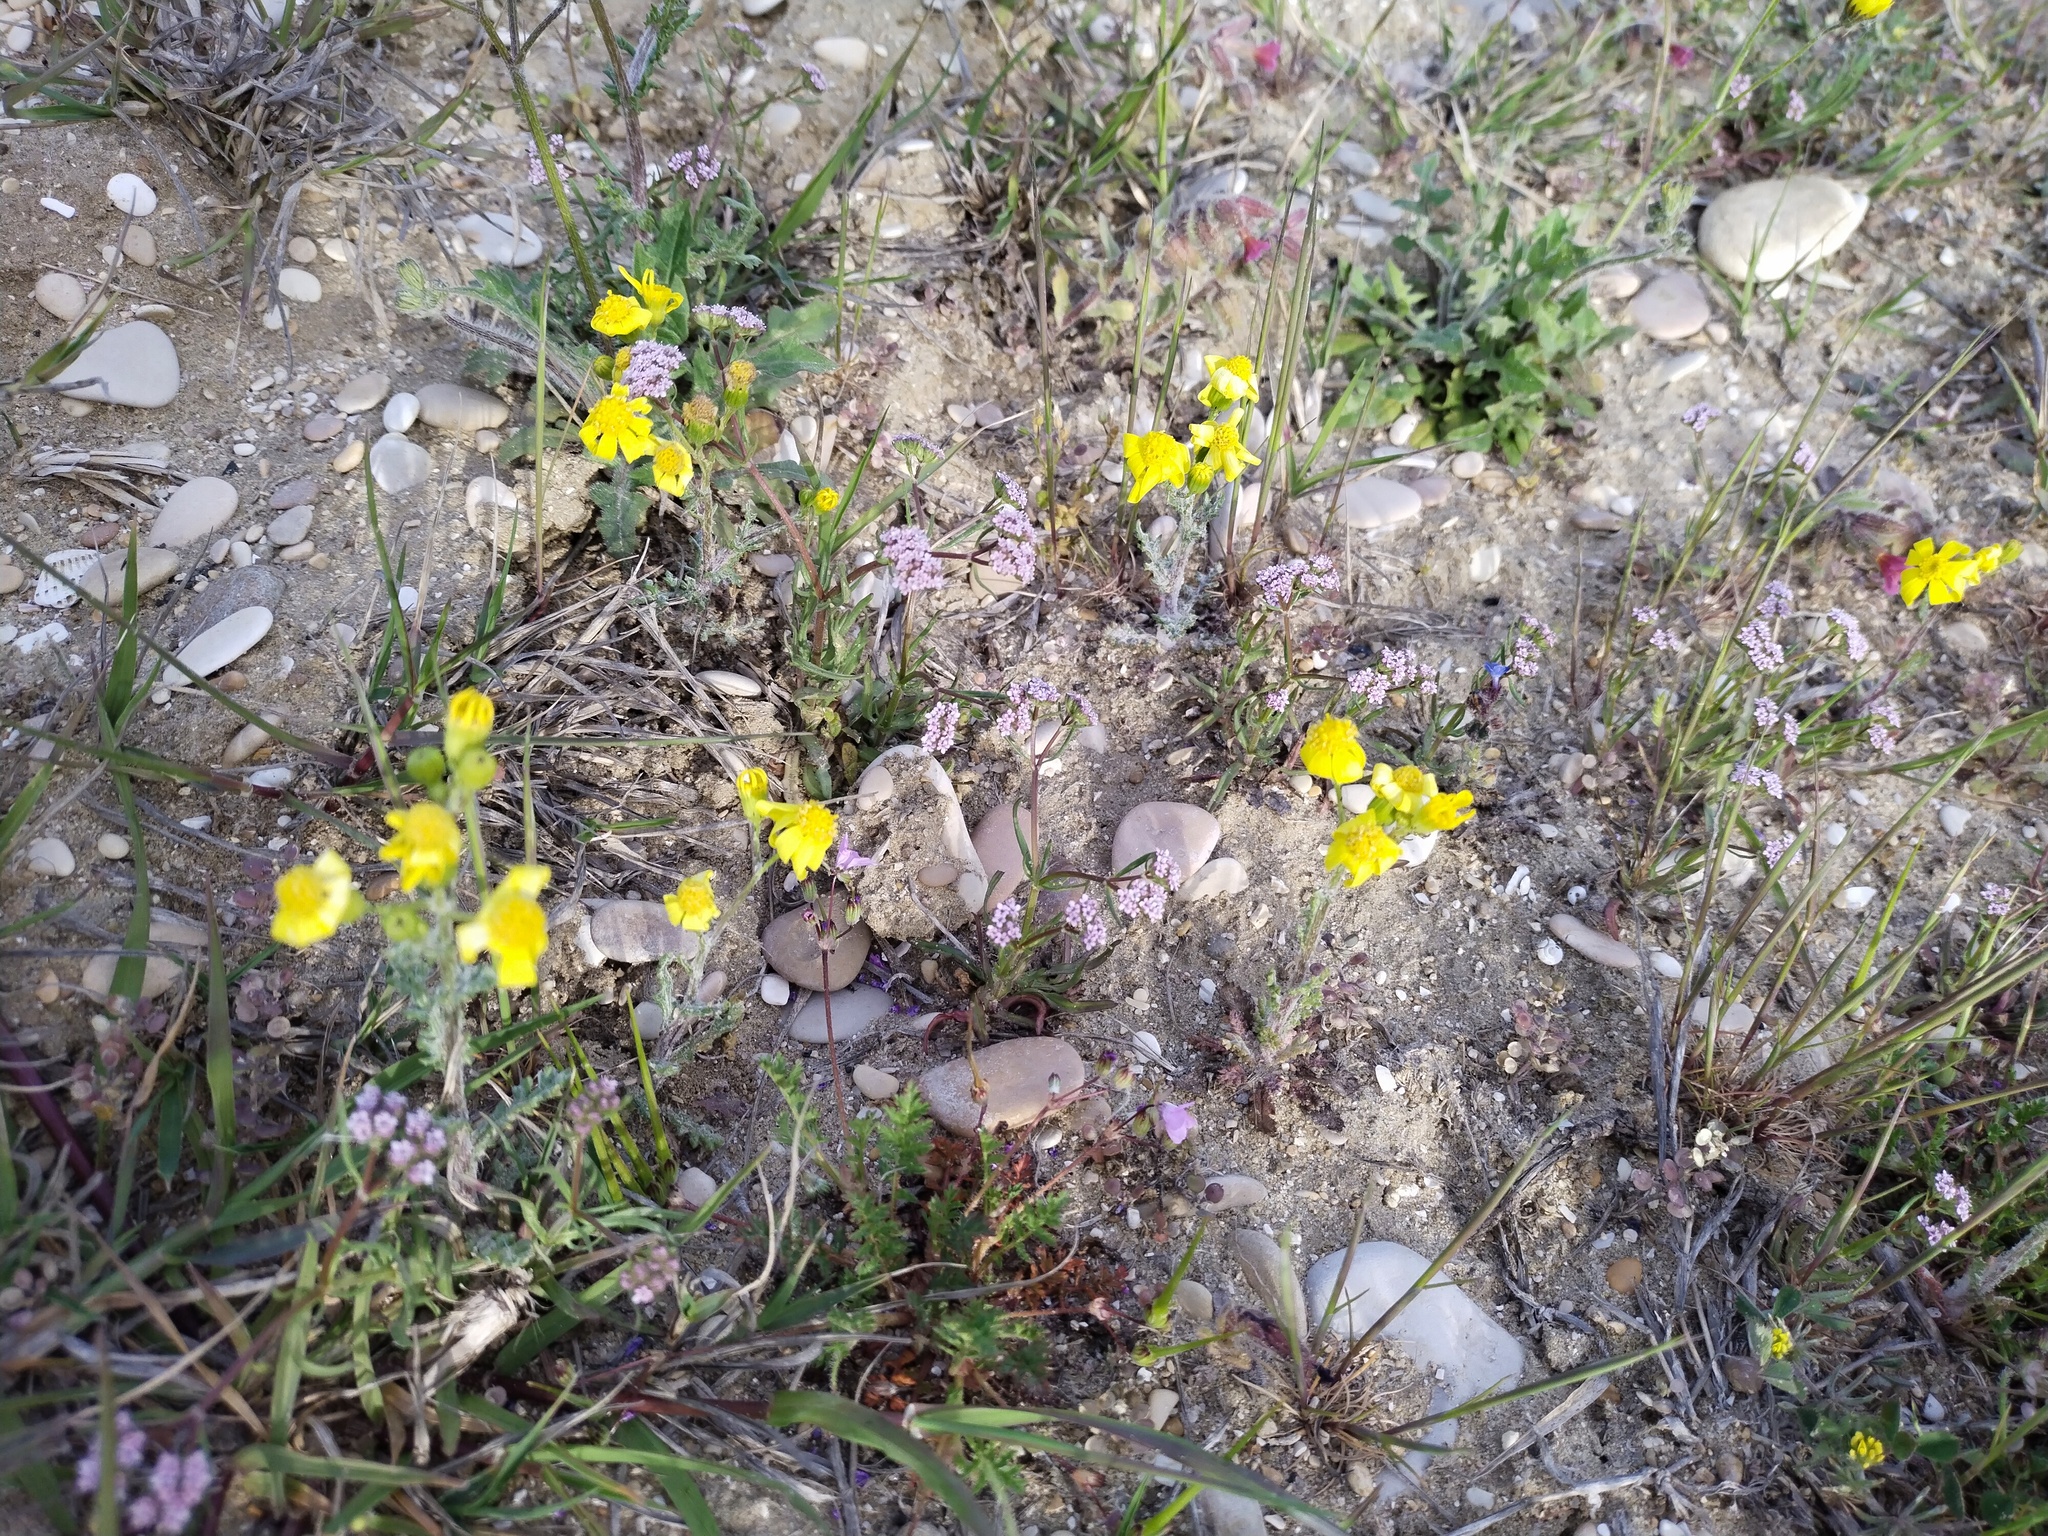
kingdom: Plantae
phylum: Tracheophyta
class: Magnoliopsida
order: Asterales
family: Asteraceae
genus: Senecio
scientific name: Senecio vernalis
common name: Eastern groundsel
